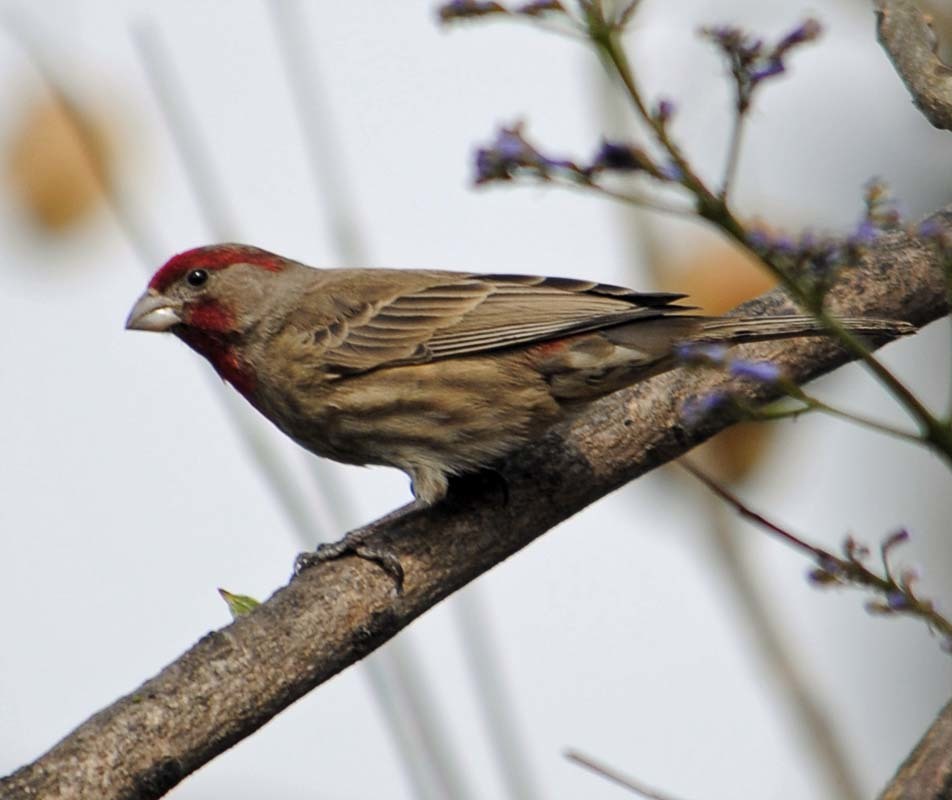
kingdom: Animalia
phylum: Chordata
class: Aves
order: Passeriformes
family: Fringillidae
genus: Haemorhous
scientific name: Haemorhous mexicanus
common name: House finch
